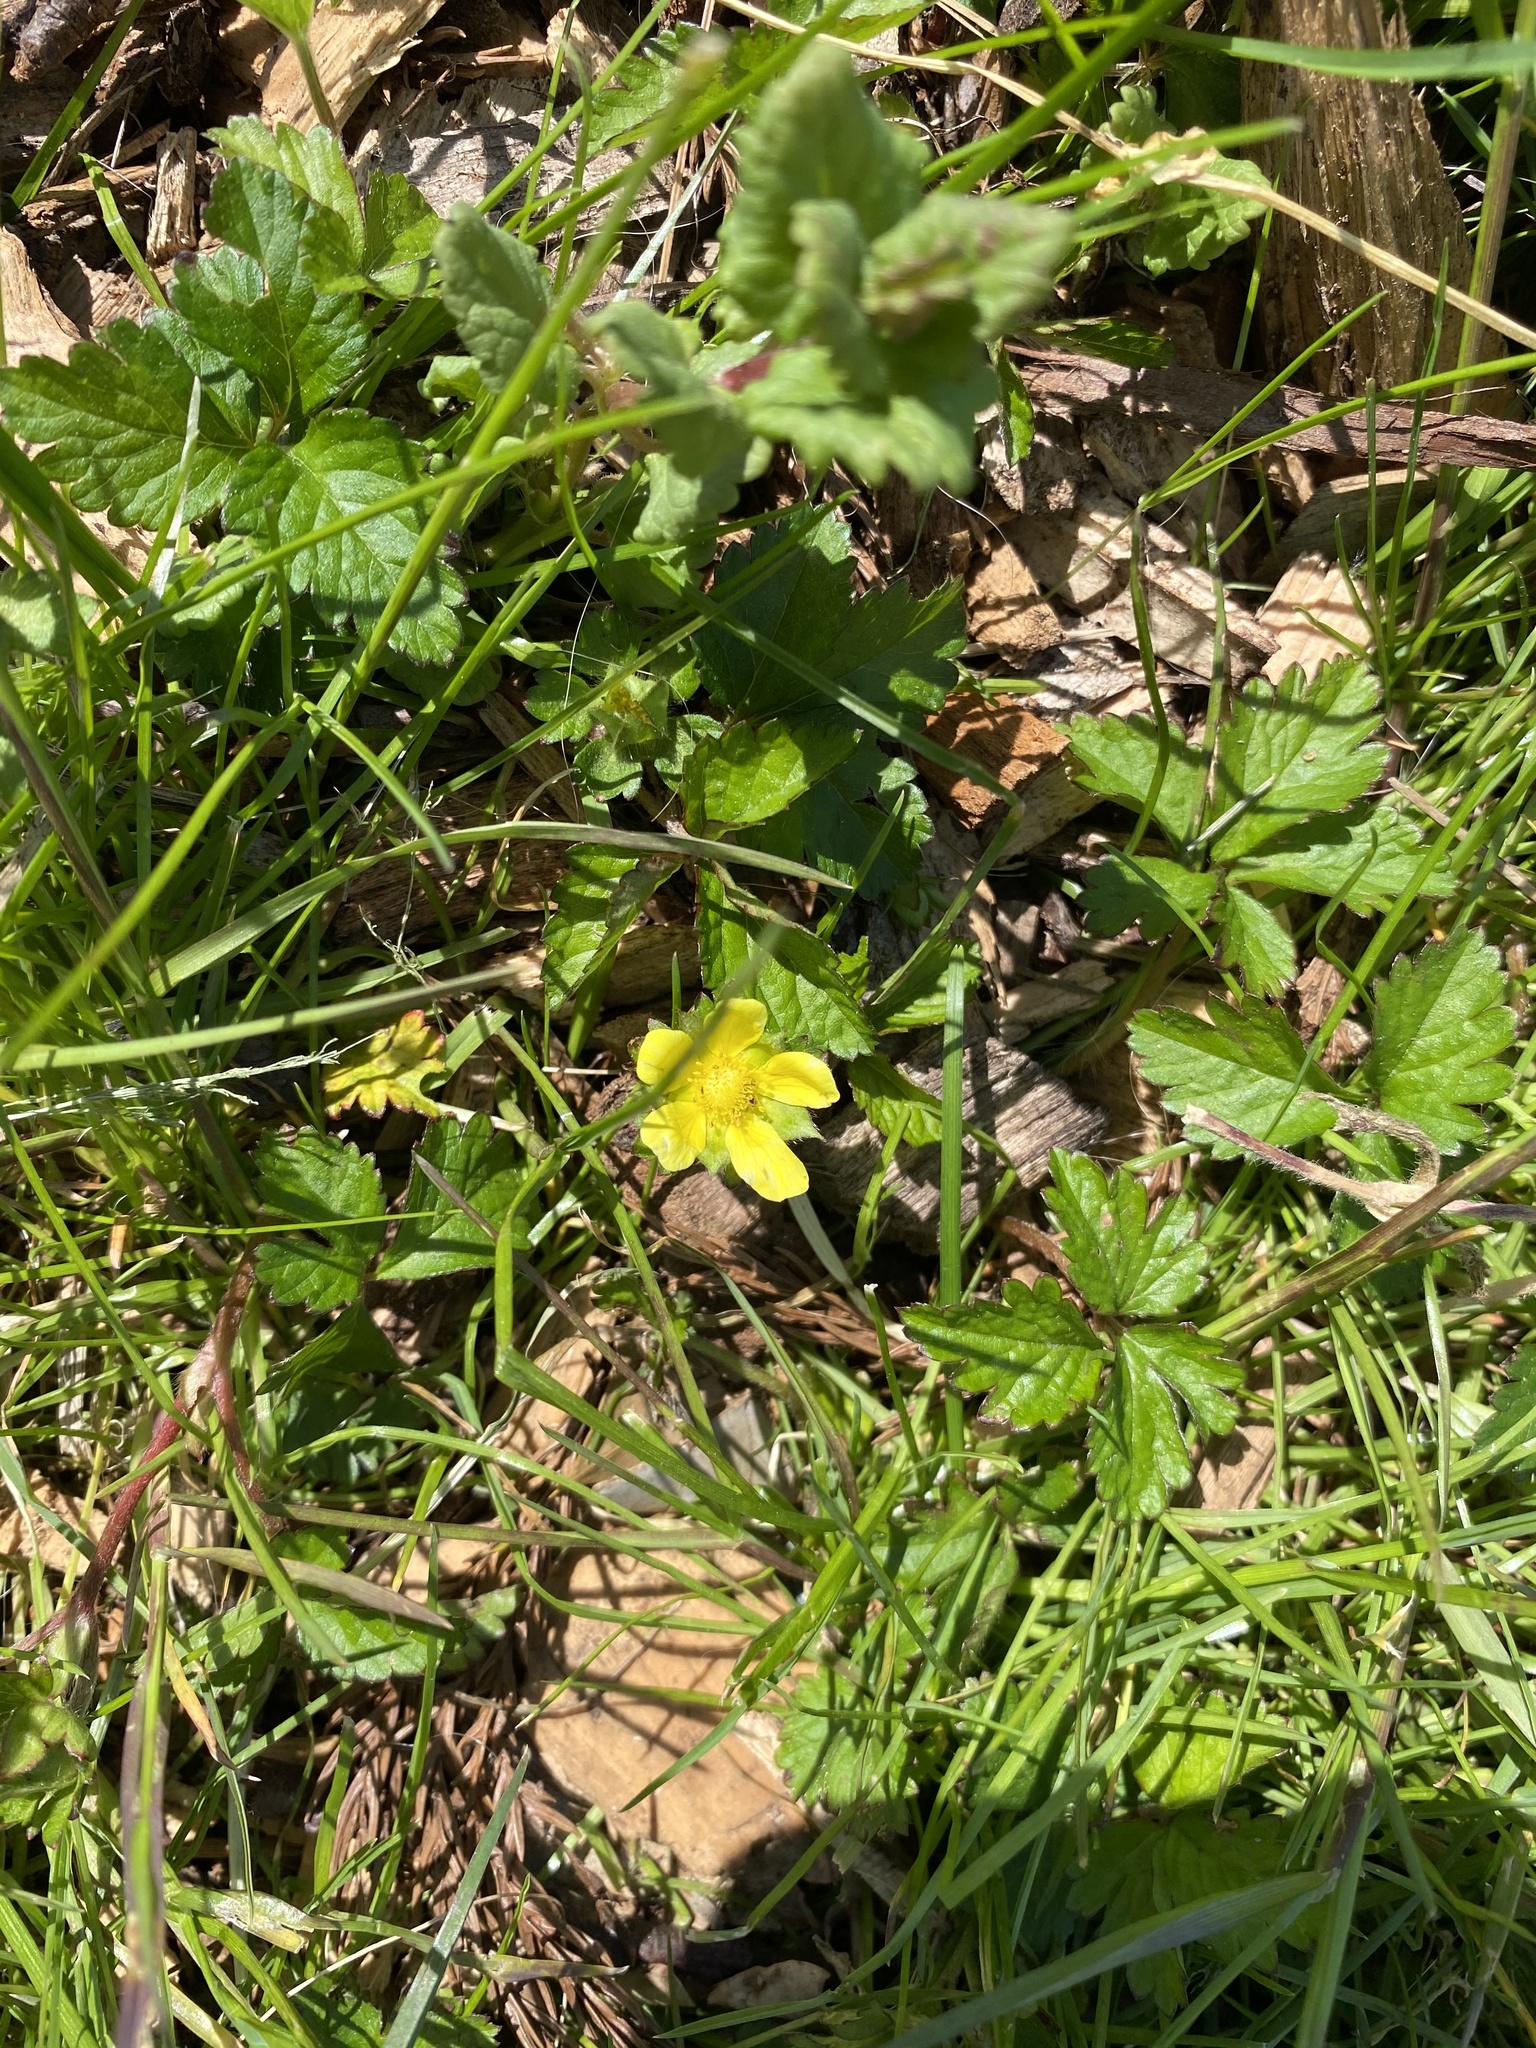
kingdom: Plantae
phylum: Tracheophyta
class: Magnoliopsida
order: Rosales
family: Rosaceae
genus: Potentilla
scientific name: Potentilla indica
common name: Yellow-flowered strawberry
